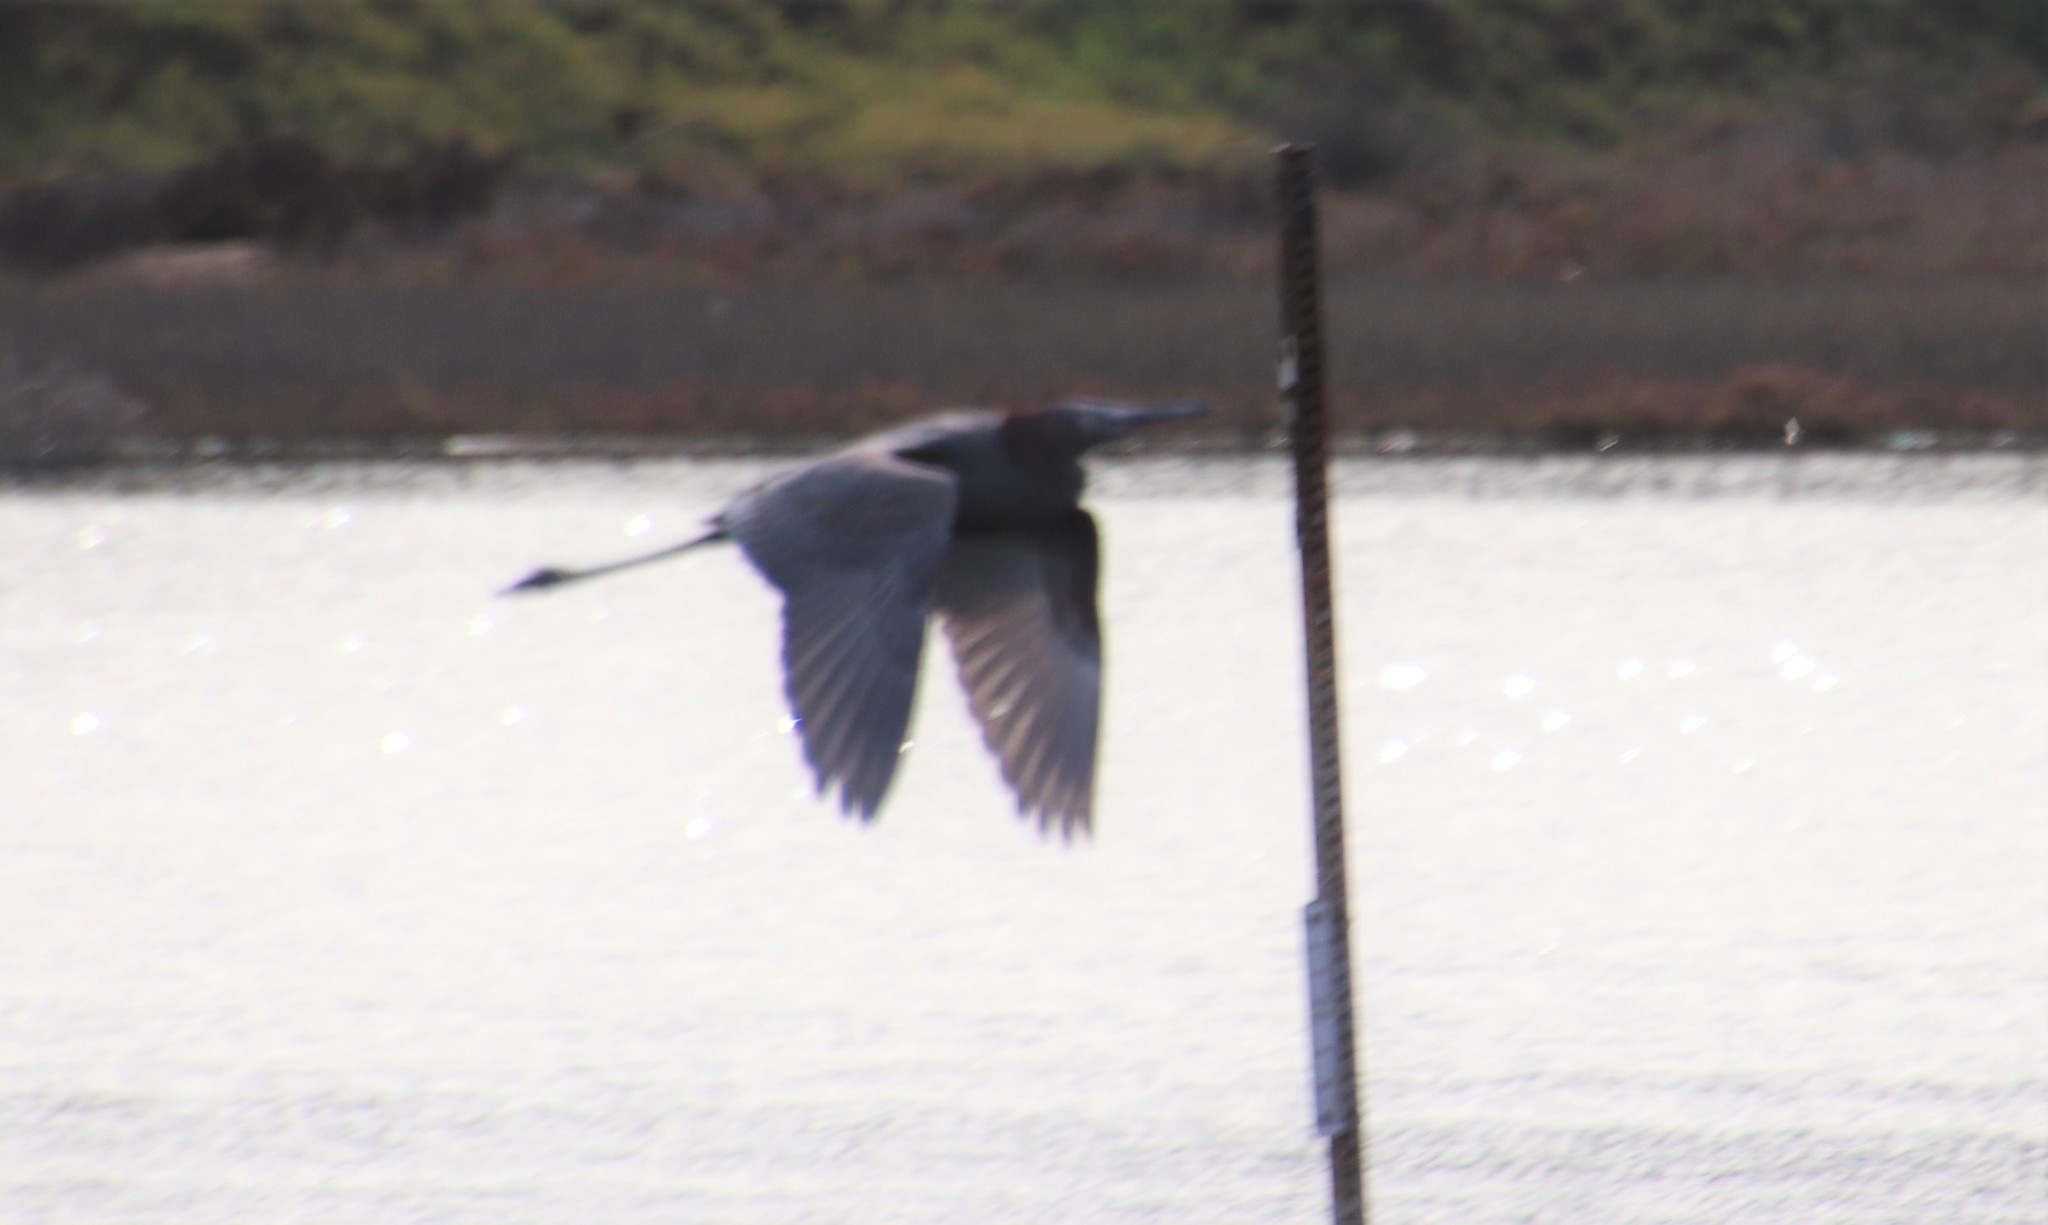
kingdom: Animalia
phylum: Chordata
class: Aves
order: Pelecaniformes
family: Ardeidae
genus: Egretta
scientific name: Egretta rufescens
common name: Reddish egret
